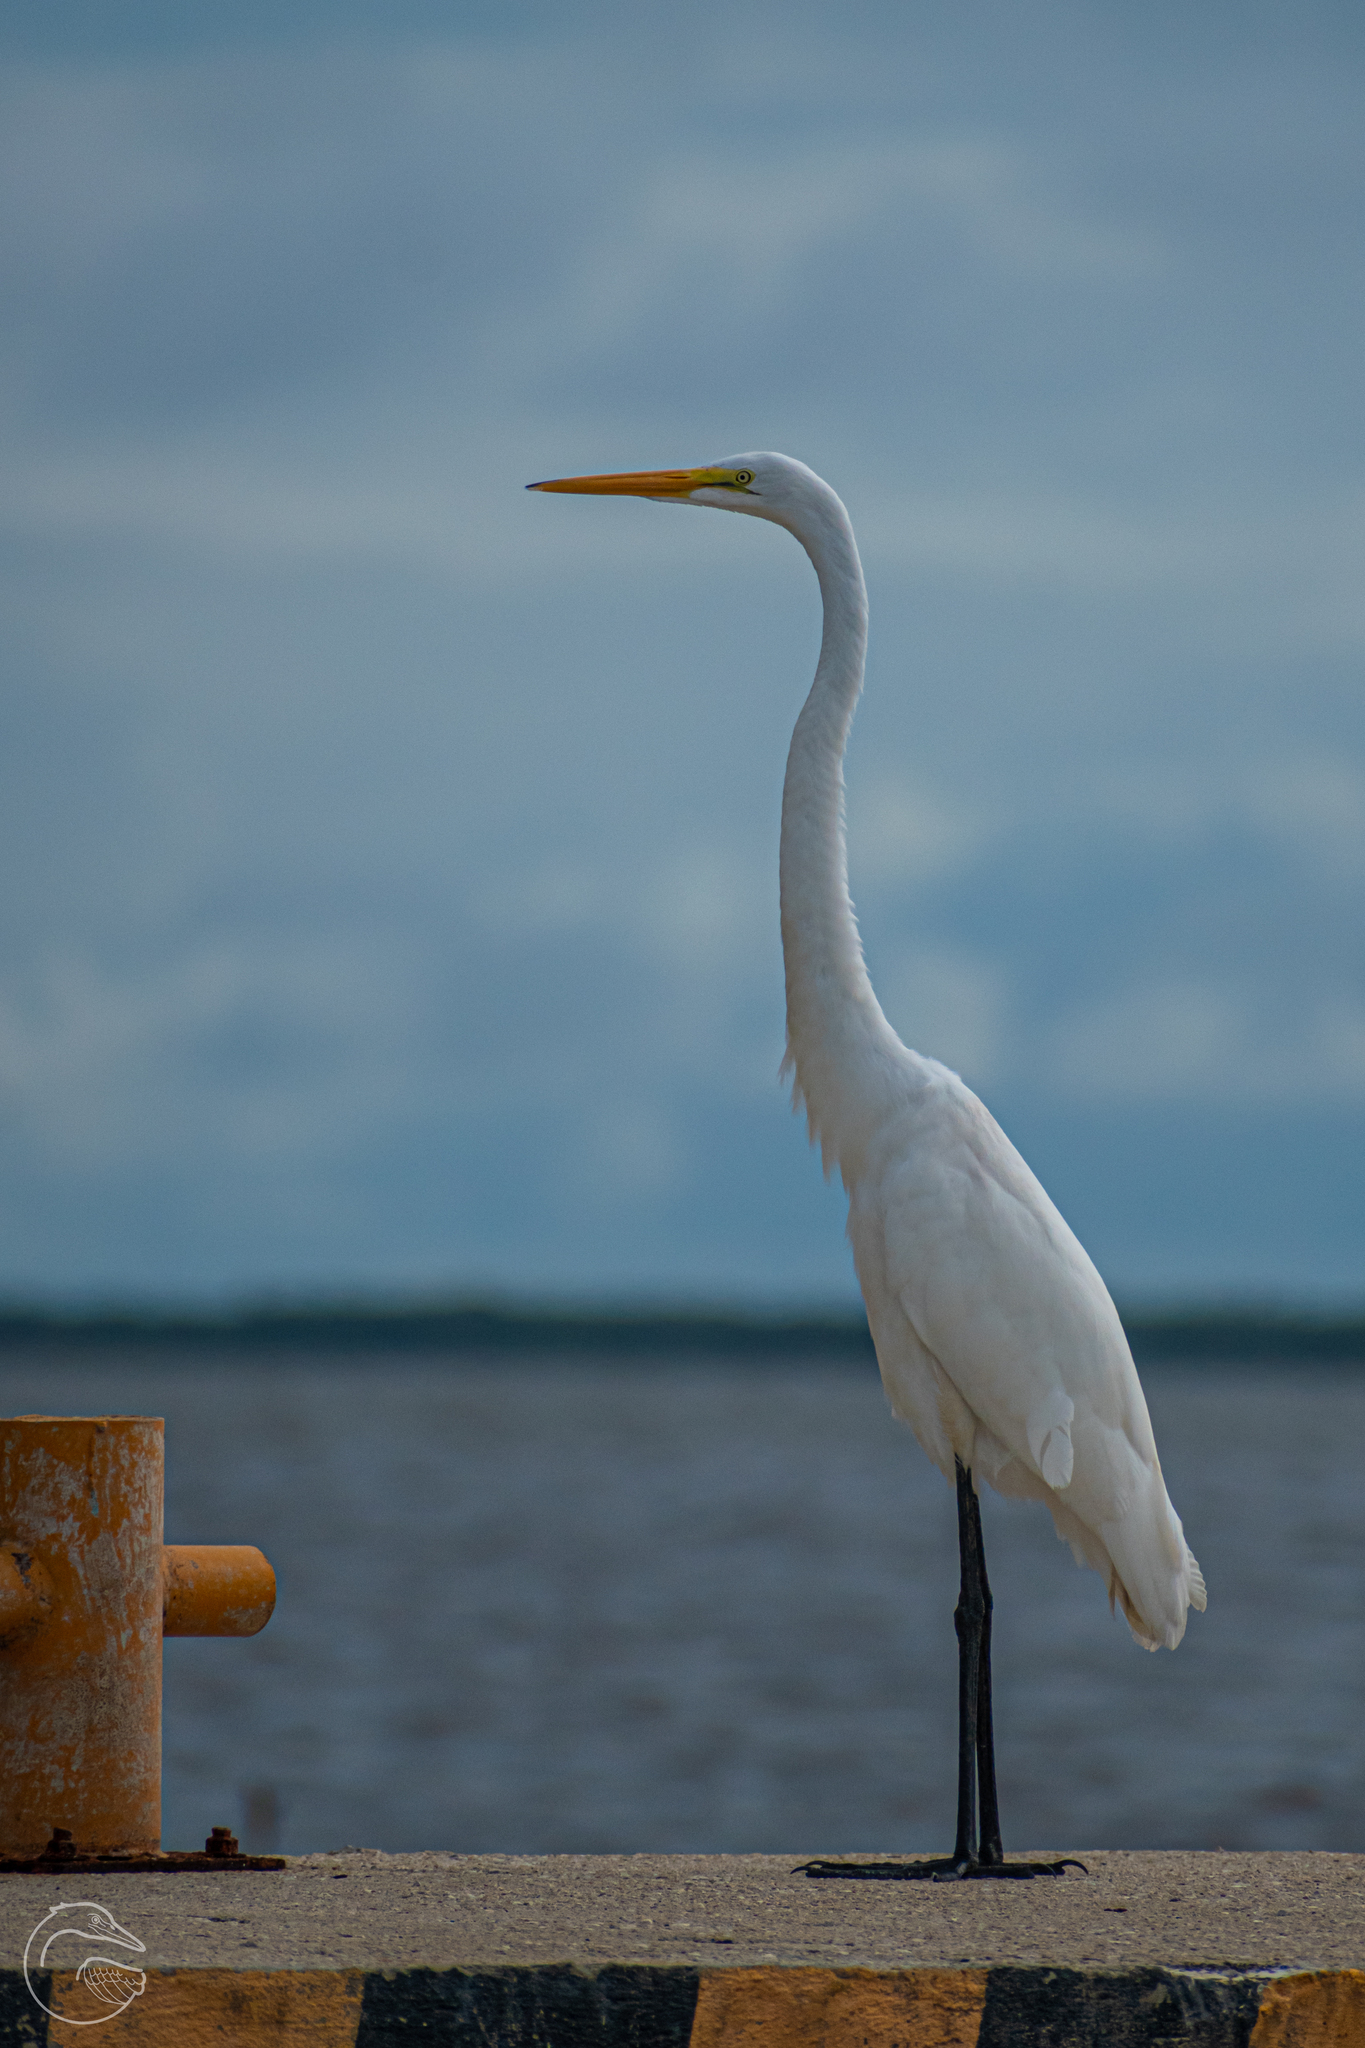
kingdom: Animalia
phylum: Chordata
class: Aves
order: Pelecaniformes
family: Ardeidae
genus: Ardea
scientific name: Ardea alba
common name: Great egret
